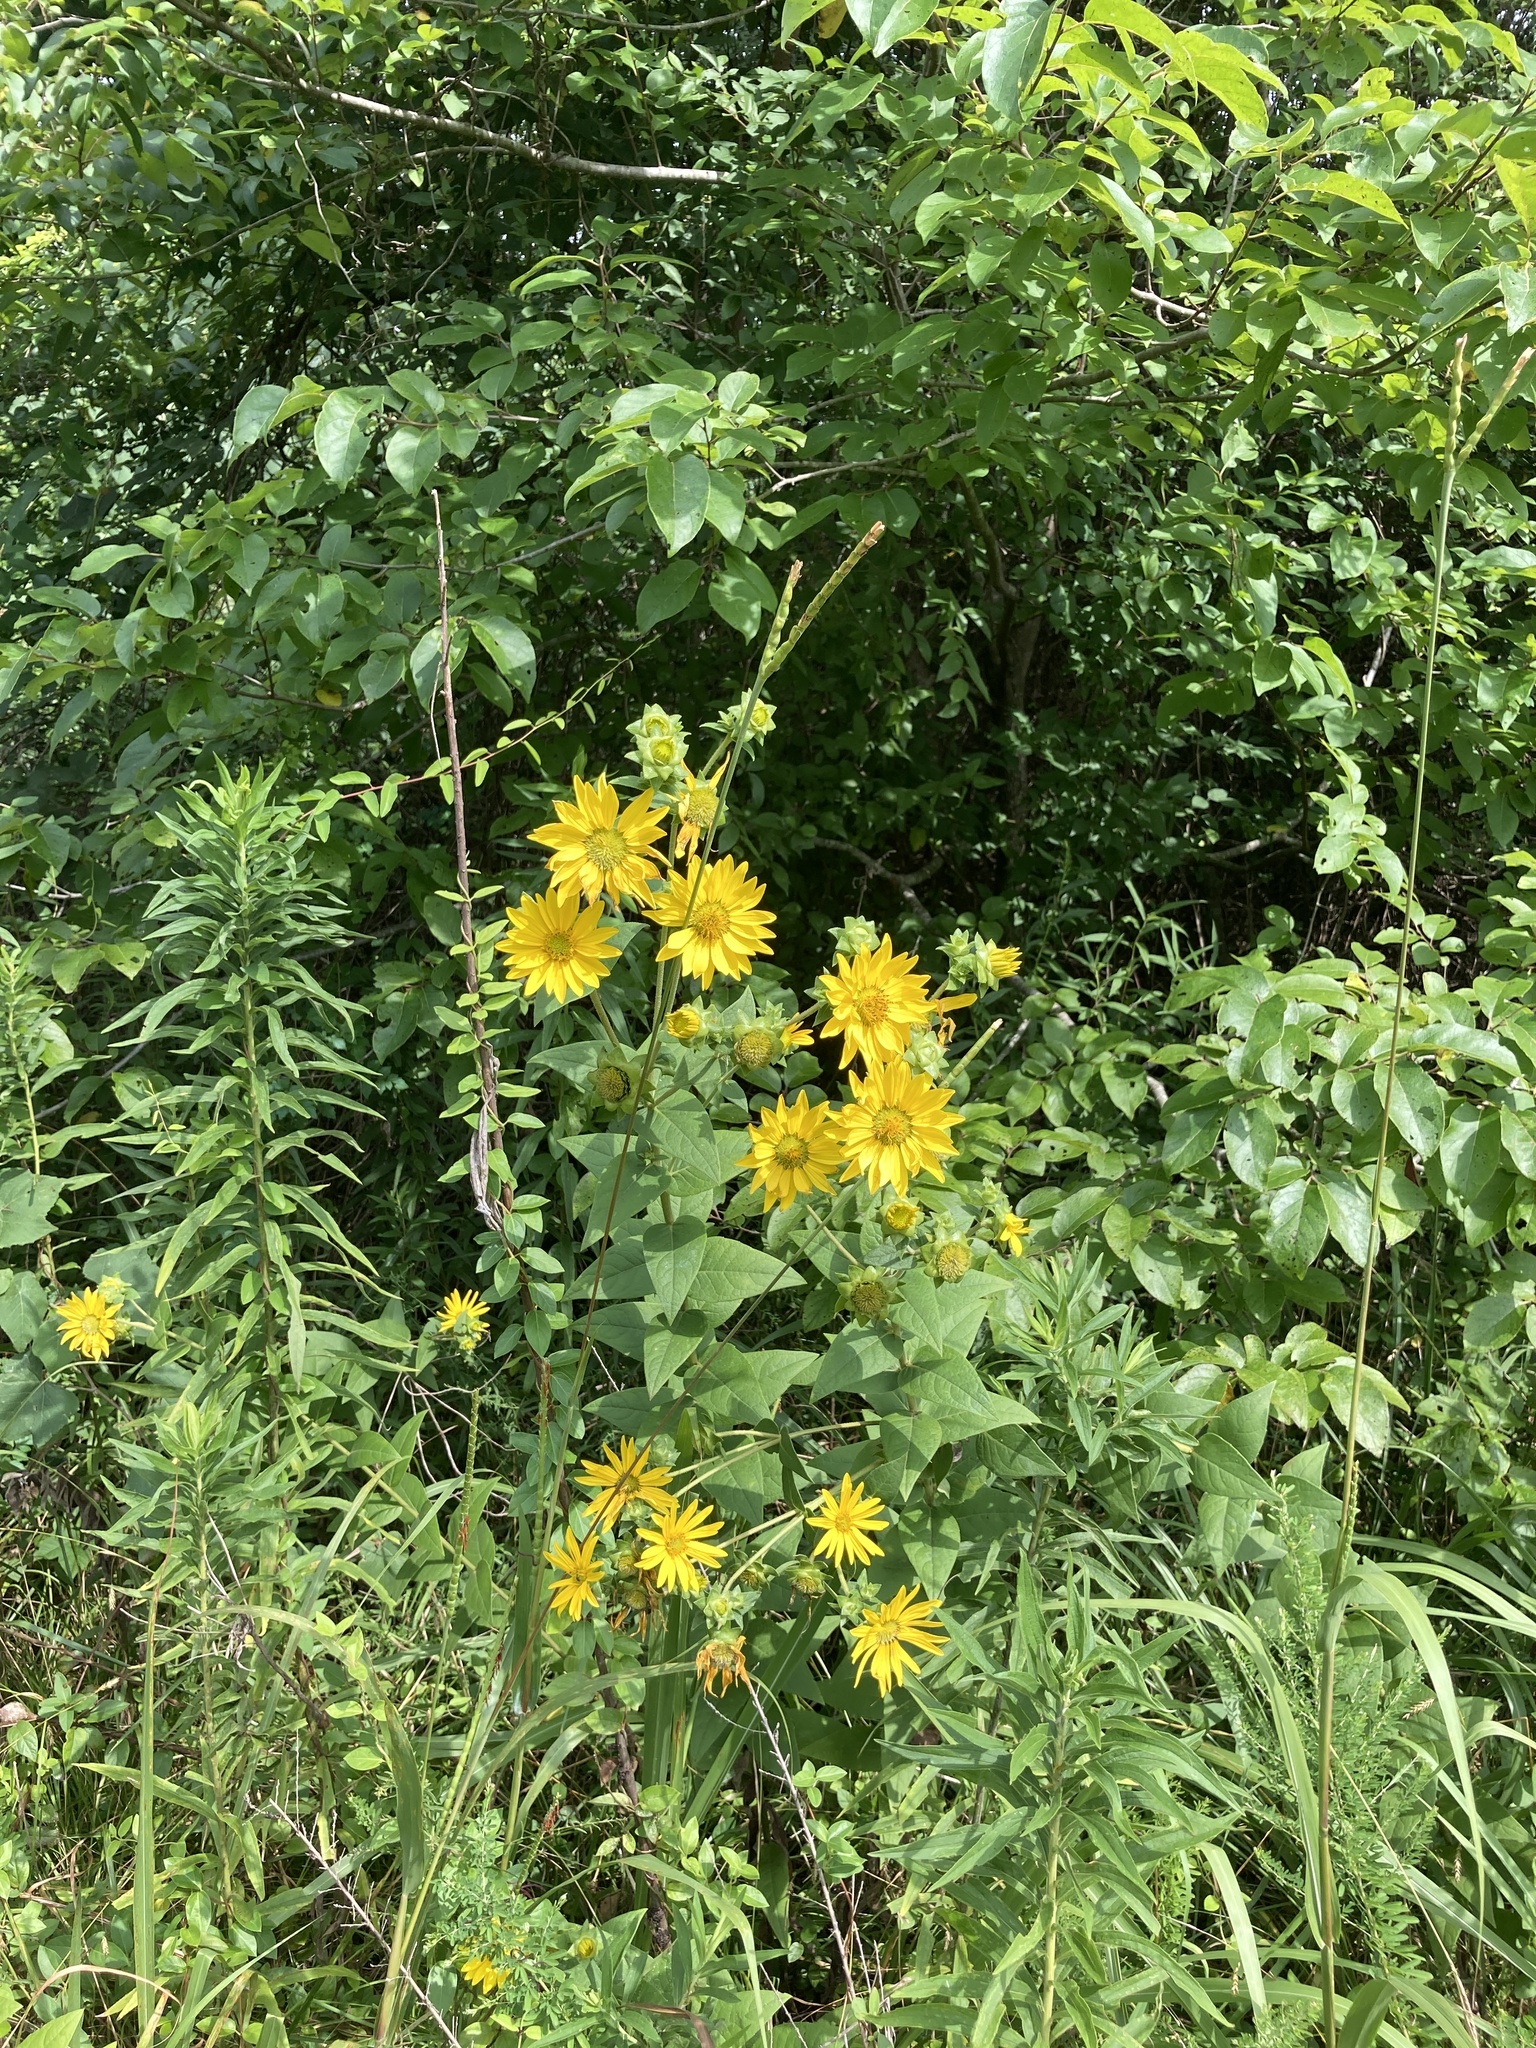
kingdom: Plantae
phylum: Tracheophyta
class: Magnoliopsida
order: Asterales
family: Asteraceae
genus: Silphium
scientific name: Silphium radula
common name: Roughleaf rosinweed
